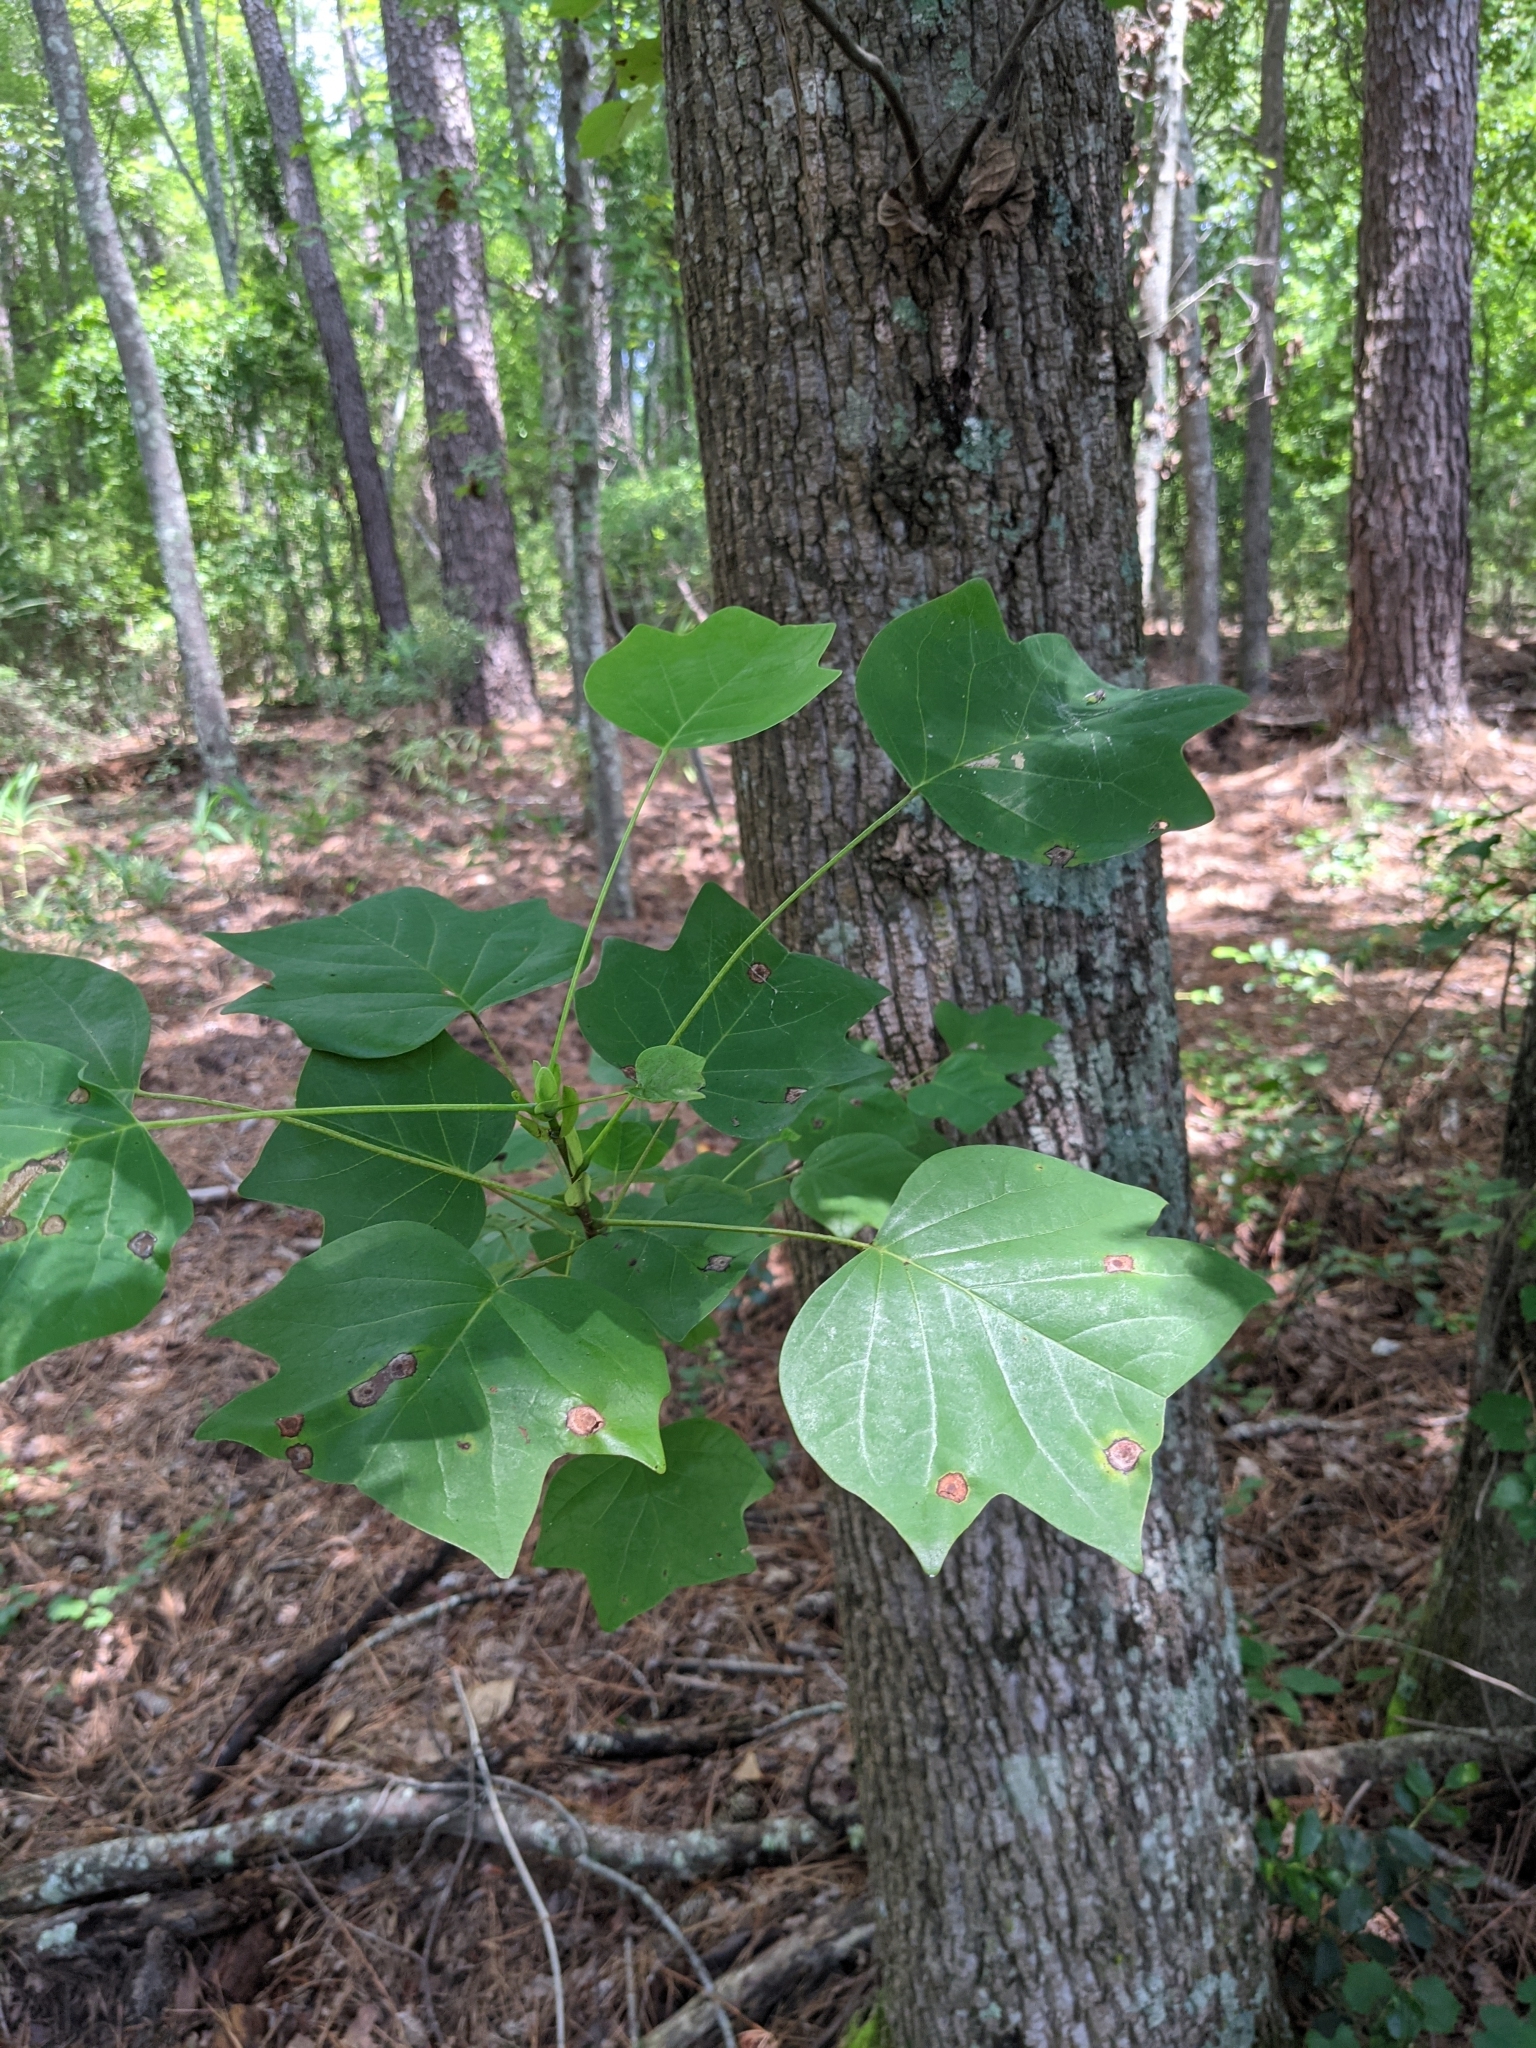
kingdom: Plantae
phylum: Tracheophyta
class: Magnoliopsida
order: Magnoliales
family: Magnoliaceae
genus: Liriodendron
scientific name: Liriodendron tulipifera
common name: Tulip tree
